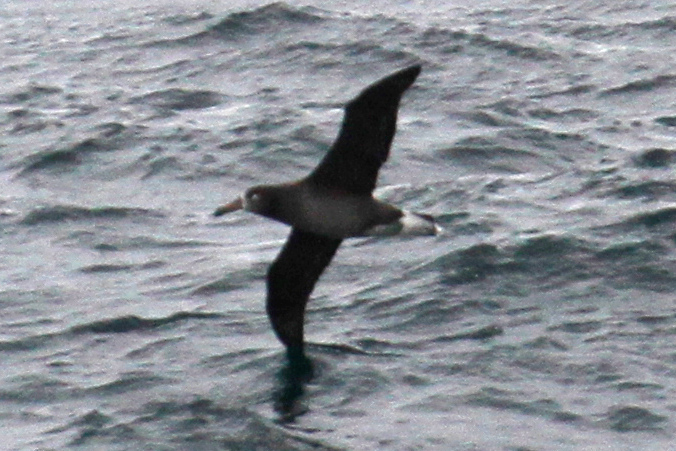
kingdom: Animalia
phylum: Chordata
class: Aves
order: Procellariiformes
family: Diomedeidae
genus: Phoebastria
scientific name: Phoebastria nigripes
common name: Black-footed albatross
